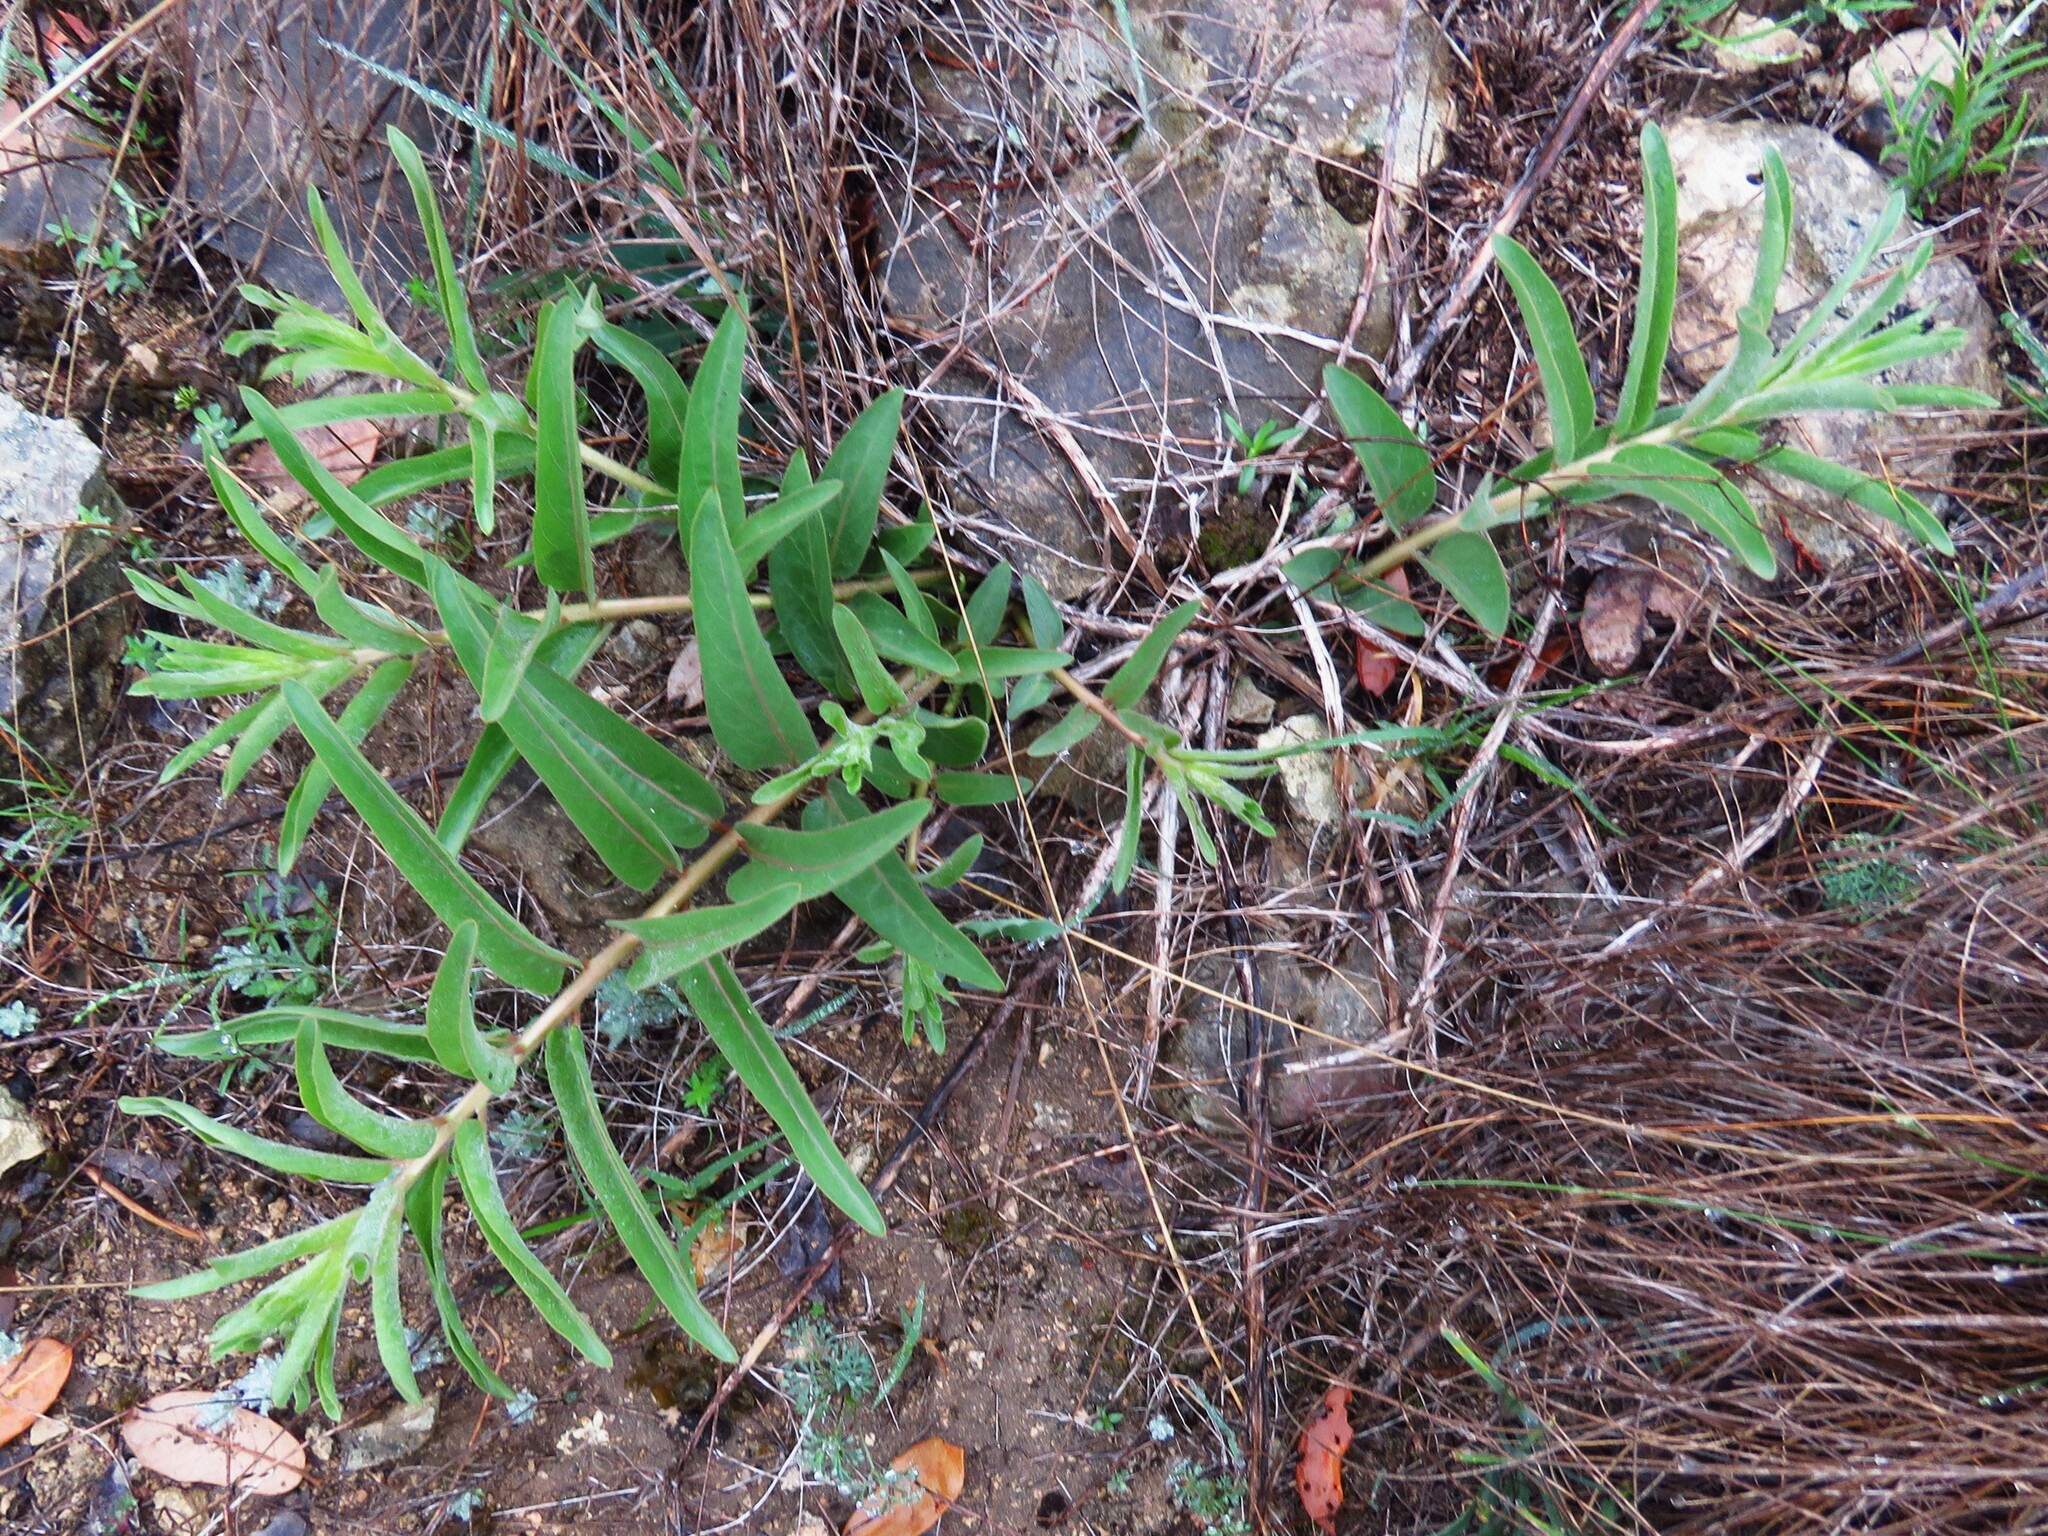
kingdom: Plantae
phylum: Tracheophyta
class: Magnoliopsida
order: Gentianales
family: Apocynaceae
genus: Asclepias
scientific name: Asclepias asperula
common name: Antelope horns
